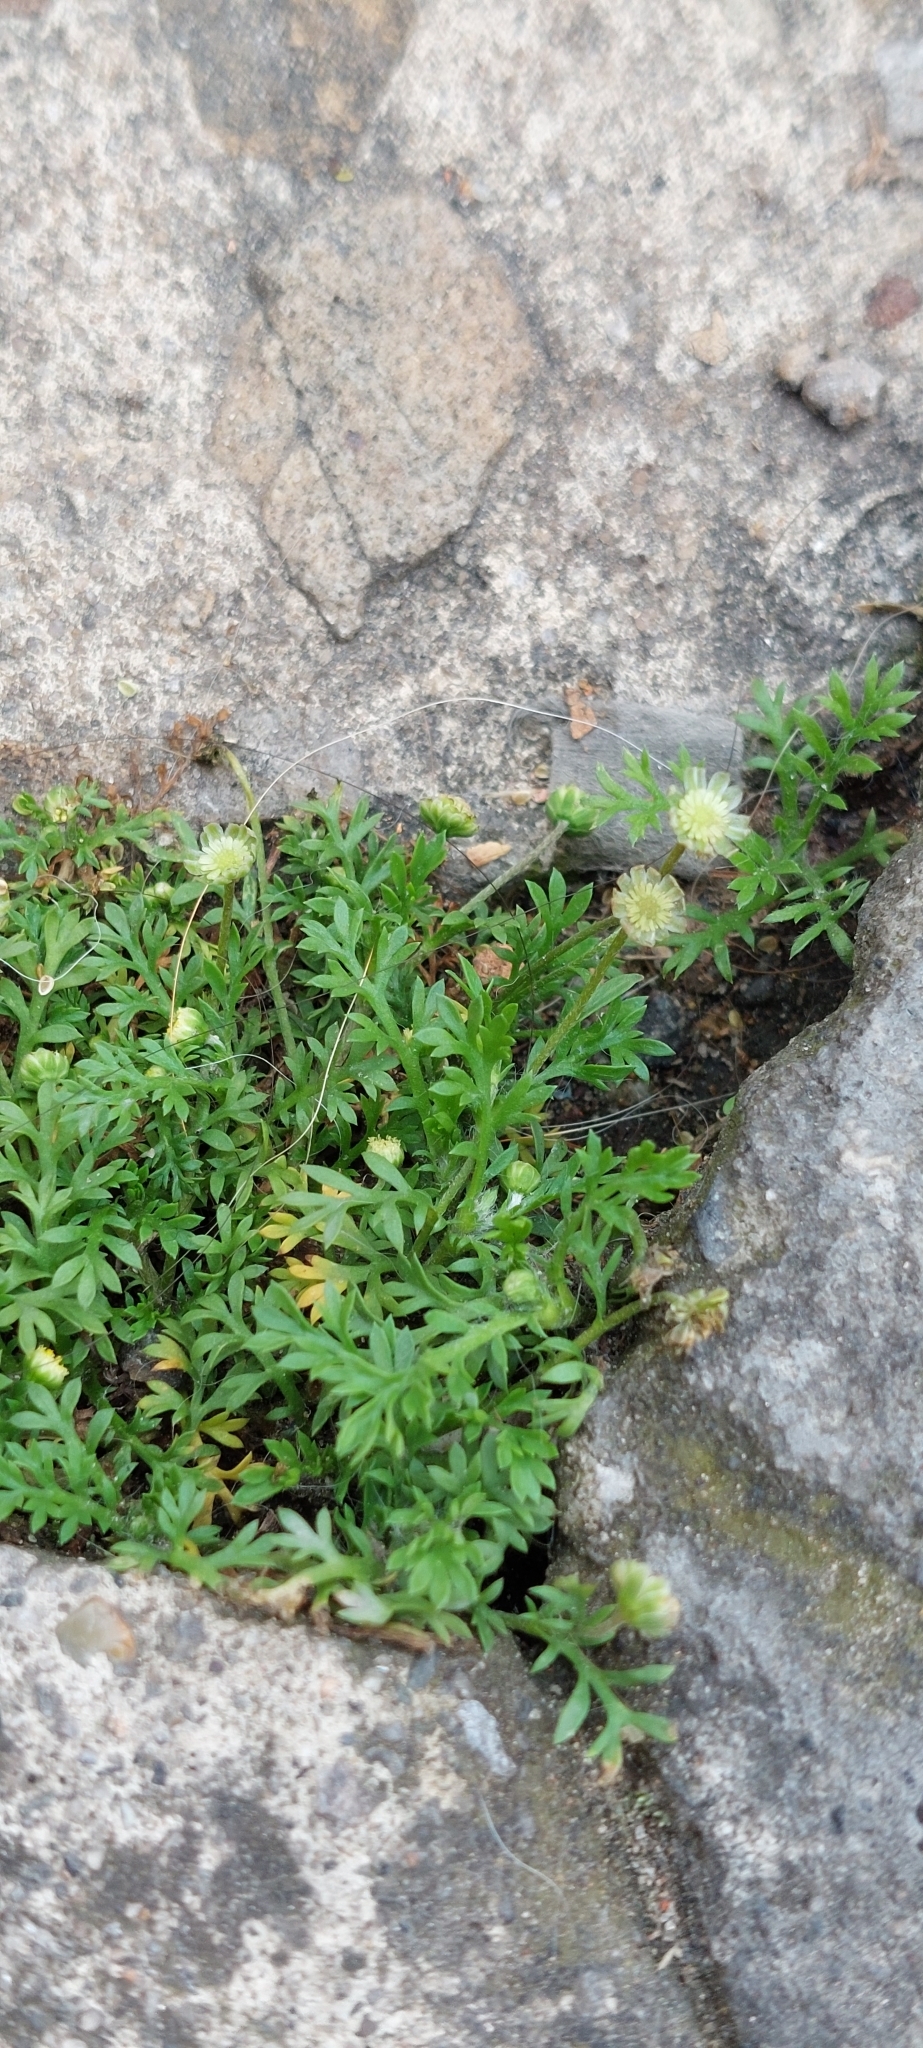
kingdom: Plantae
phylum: Tracheophyta
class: Magnoliopsida
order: Asterales
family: Asteraceae
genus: Cotula
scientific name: Cotula australis
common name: Australian waterbuttons
